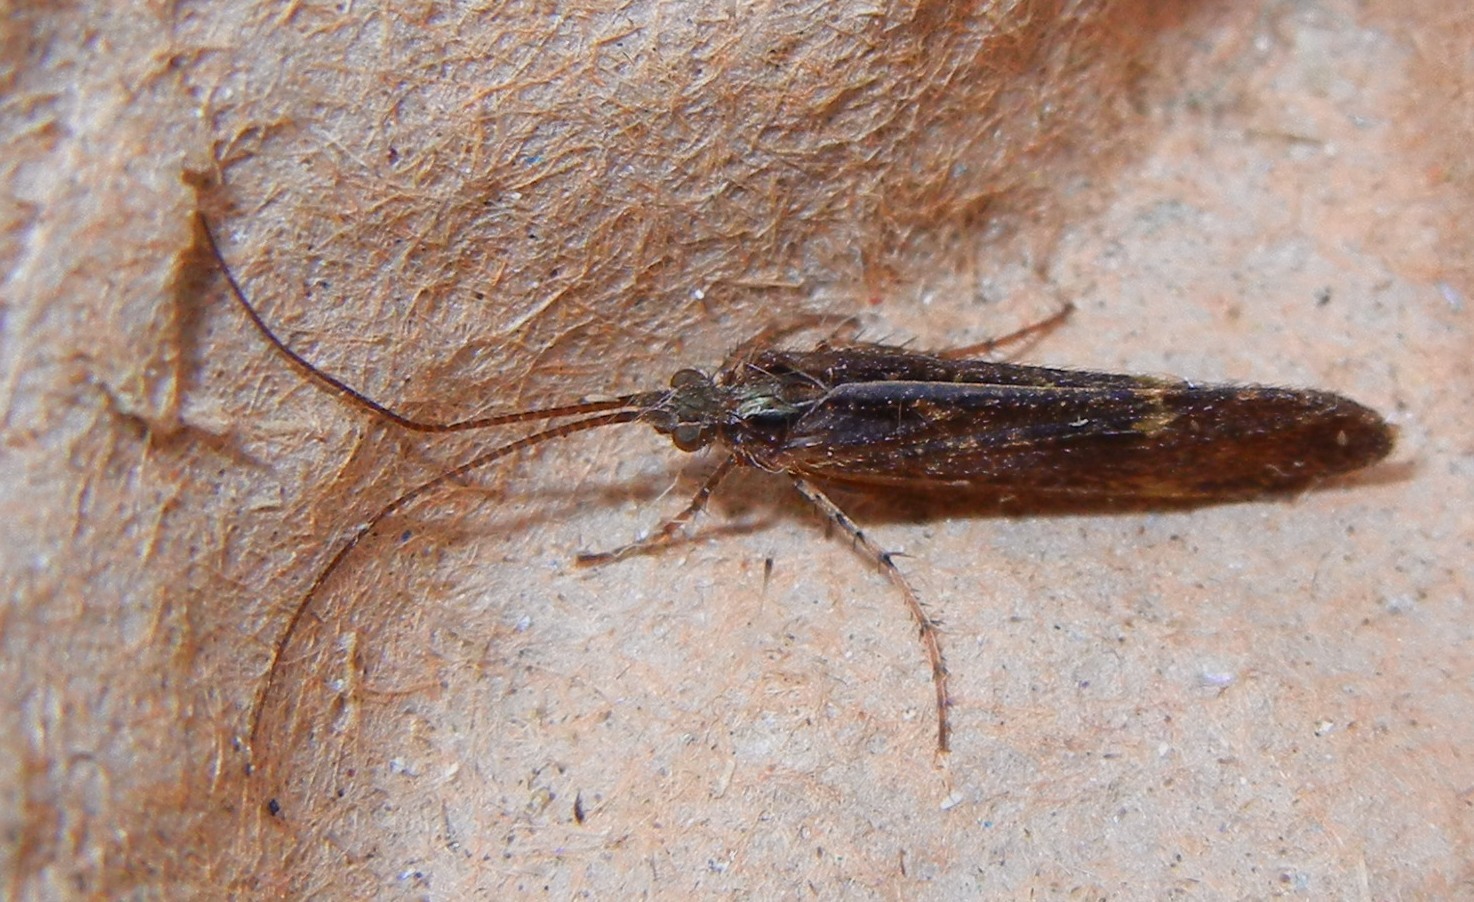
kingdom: Animalia
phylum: Arthropoda
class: Insecta
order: Trichoptera
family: Limnephilidae
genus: Limnephilus
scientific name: Limnephilus sparsus
